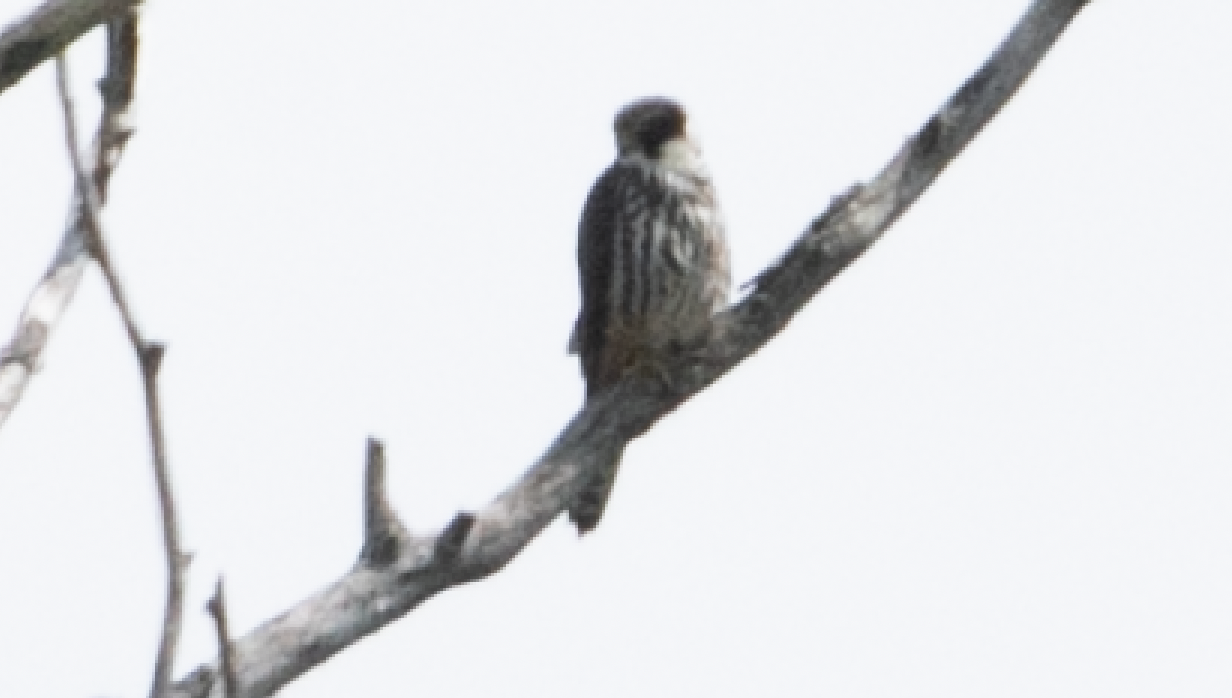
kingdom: Animalia
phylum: Chordata
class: Aves
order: Falconiformes
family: Falconidae
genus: Falco
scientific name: Falco subbuteo
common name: Eurasian hobby
